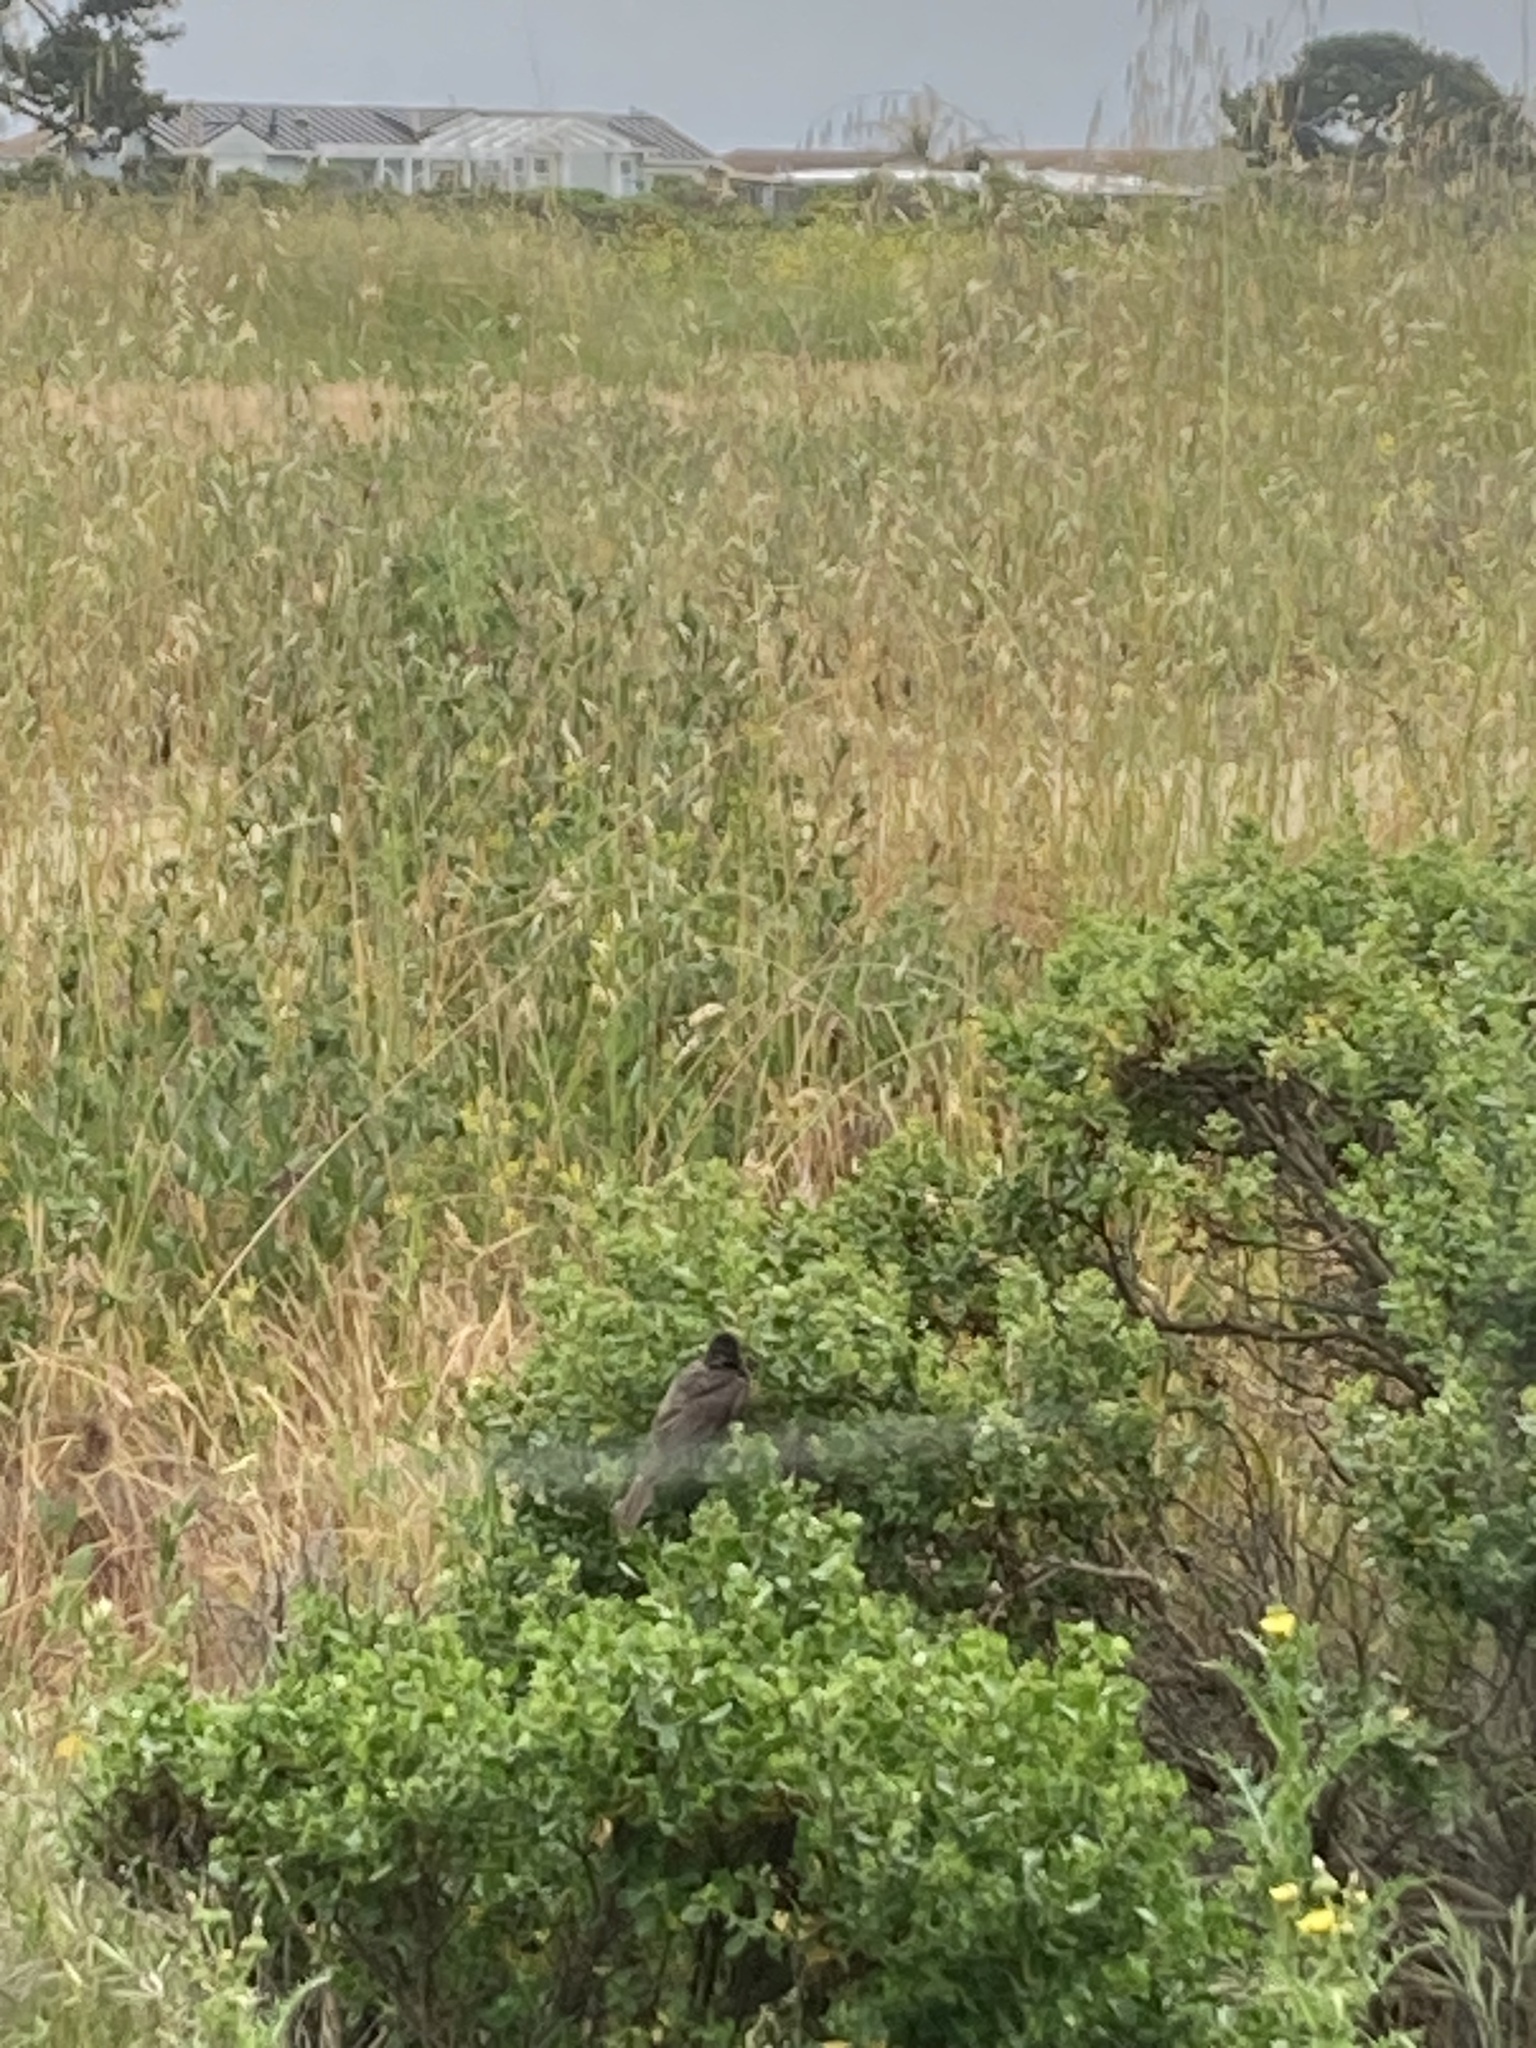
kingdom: Animalia
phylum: Chordata
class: Aves
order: Passeriformes
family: Tyrannidae
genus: Sayornis
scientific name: Sayornis nigricans
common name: Black phoebe
